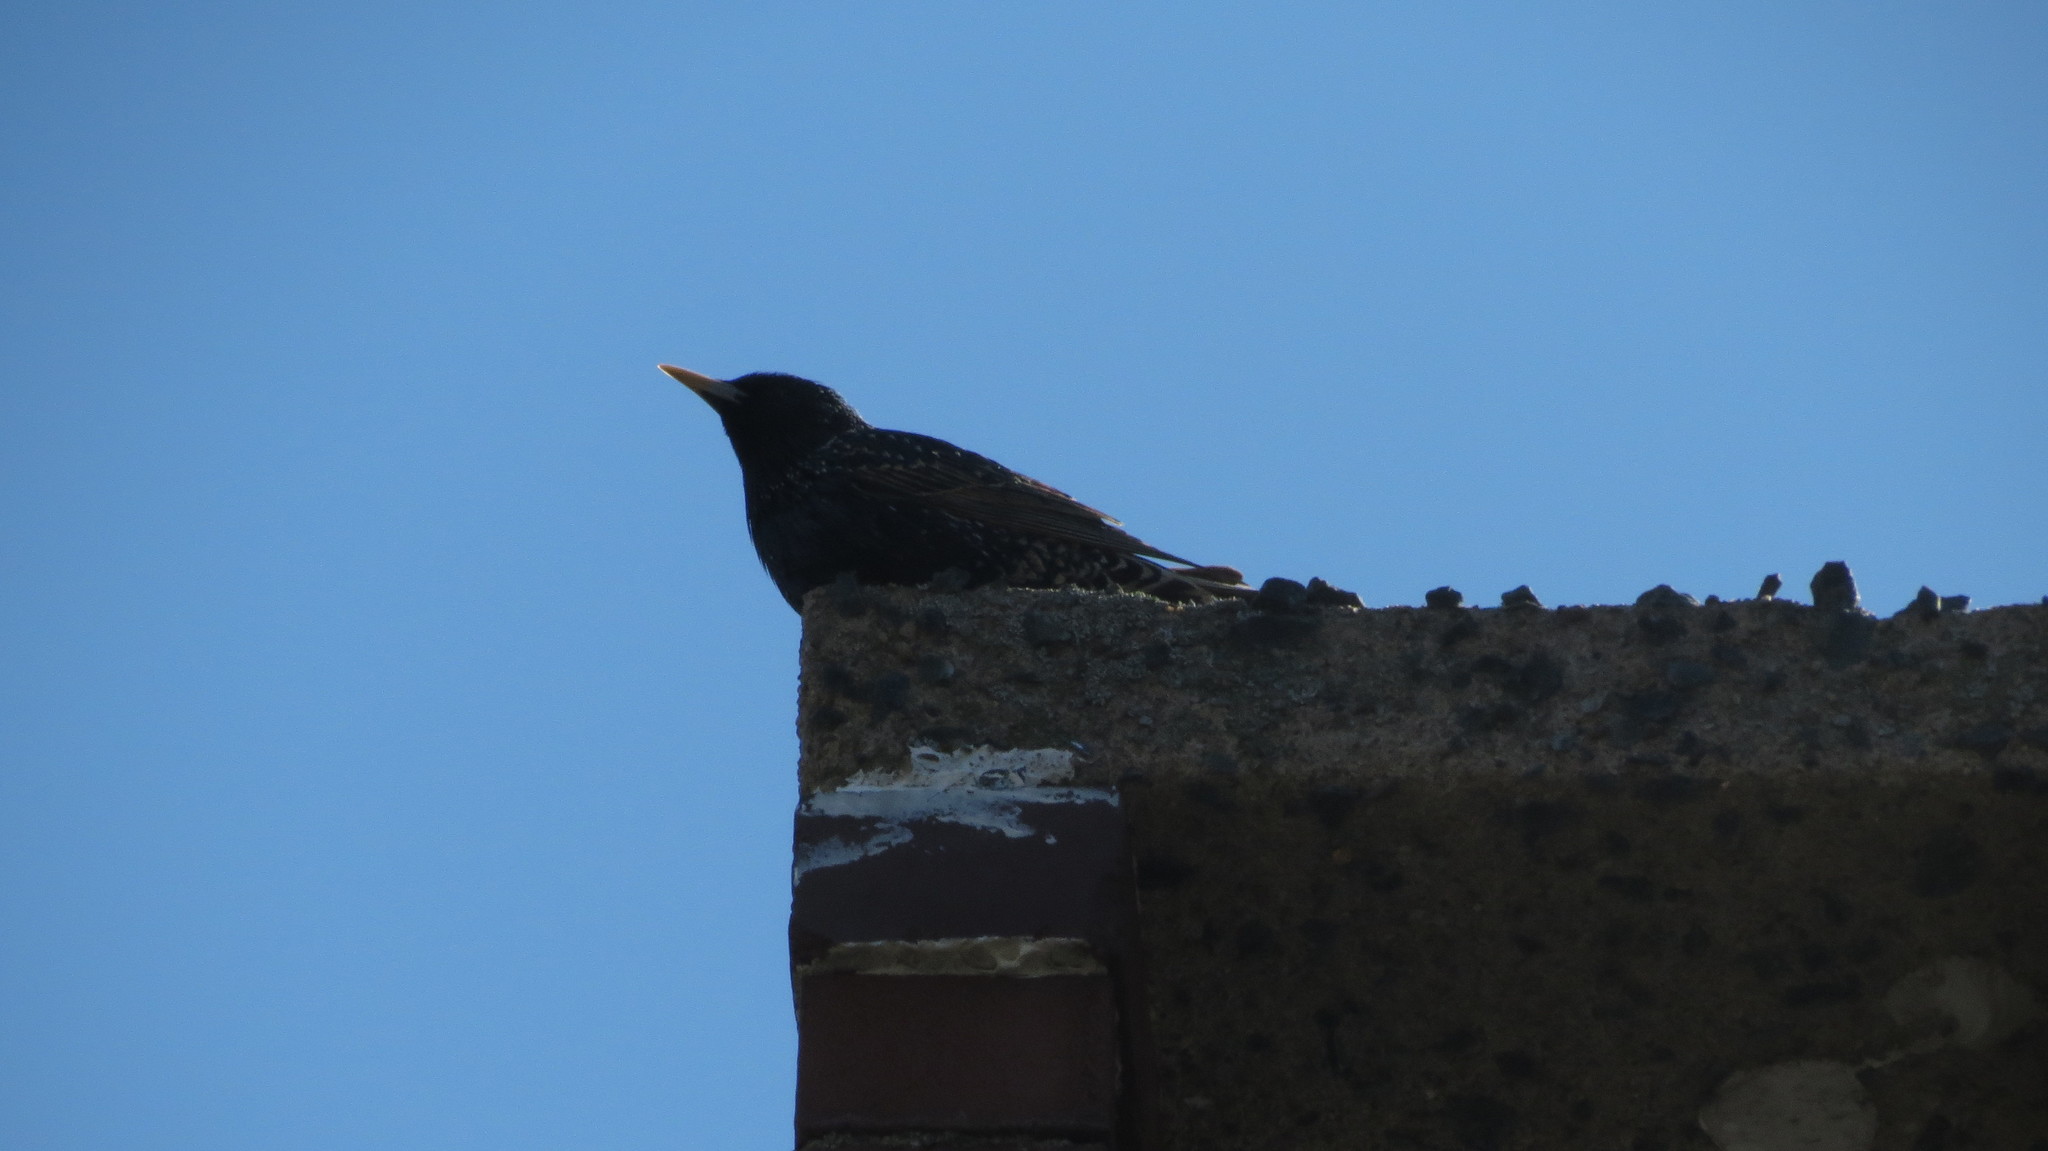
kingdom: Animalia
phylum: Chordata
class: Aves
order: Passeriformes
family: Sturnidae
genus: Sturnus
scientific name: Sturnus vulgaris
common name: Common starling
